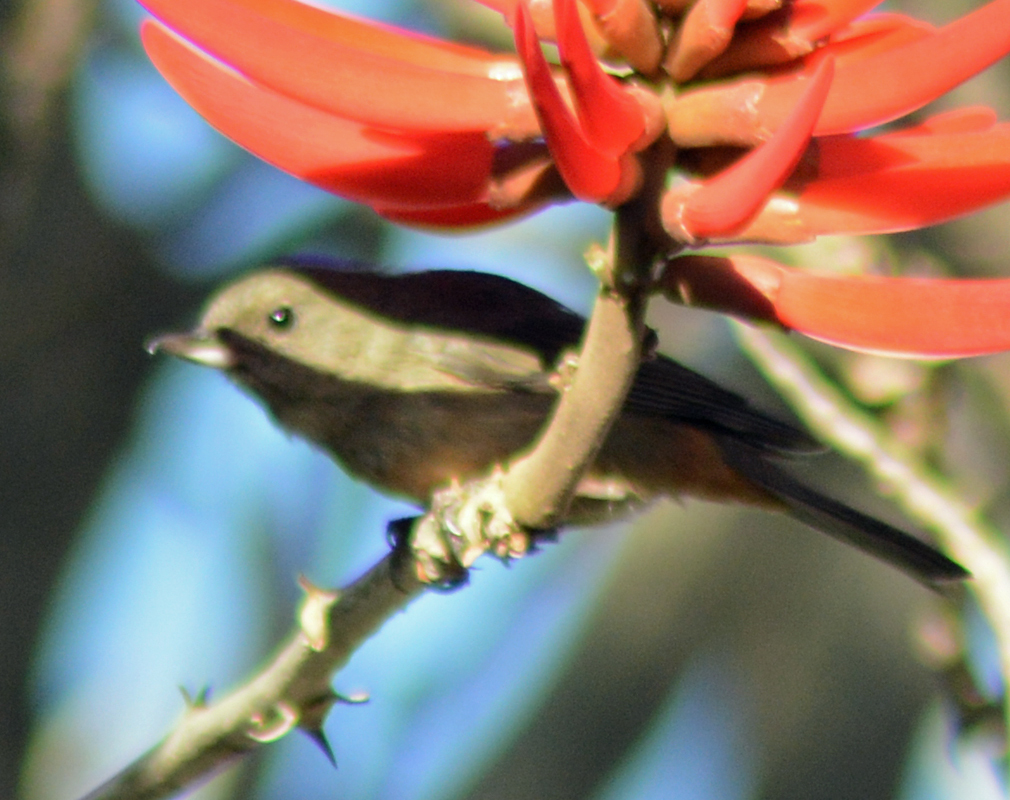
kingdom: Animalia
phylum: Chordata
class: Aves
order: Passeriformes
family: Thraupidae
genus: Diglossa
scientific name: Diglossa baritula
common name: Cinnamon-bellied flowerpiercer
